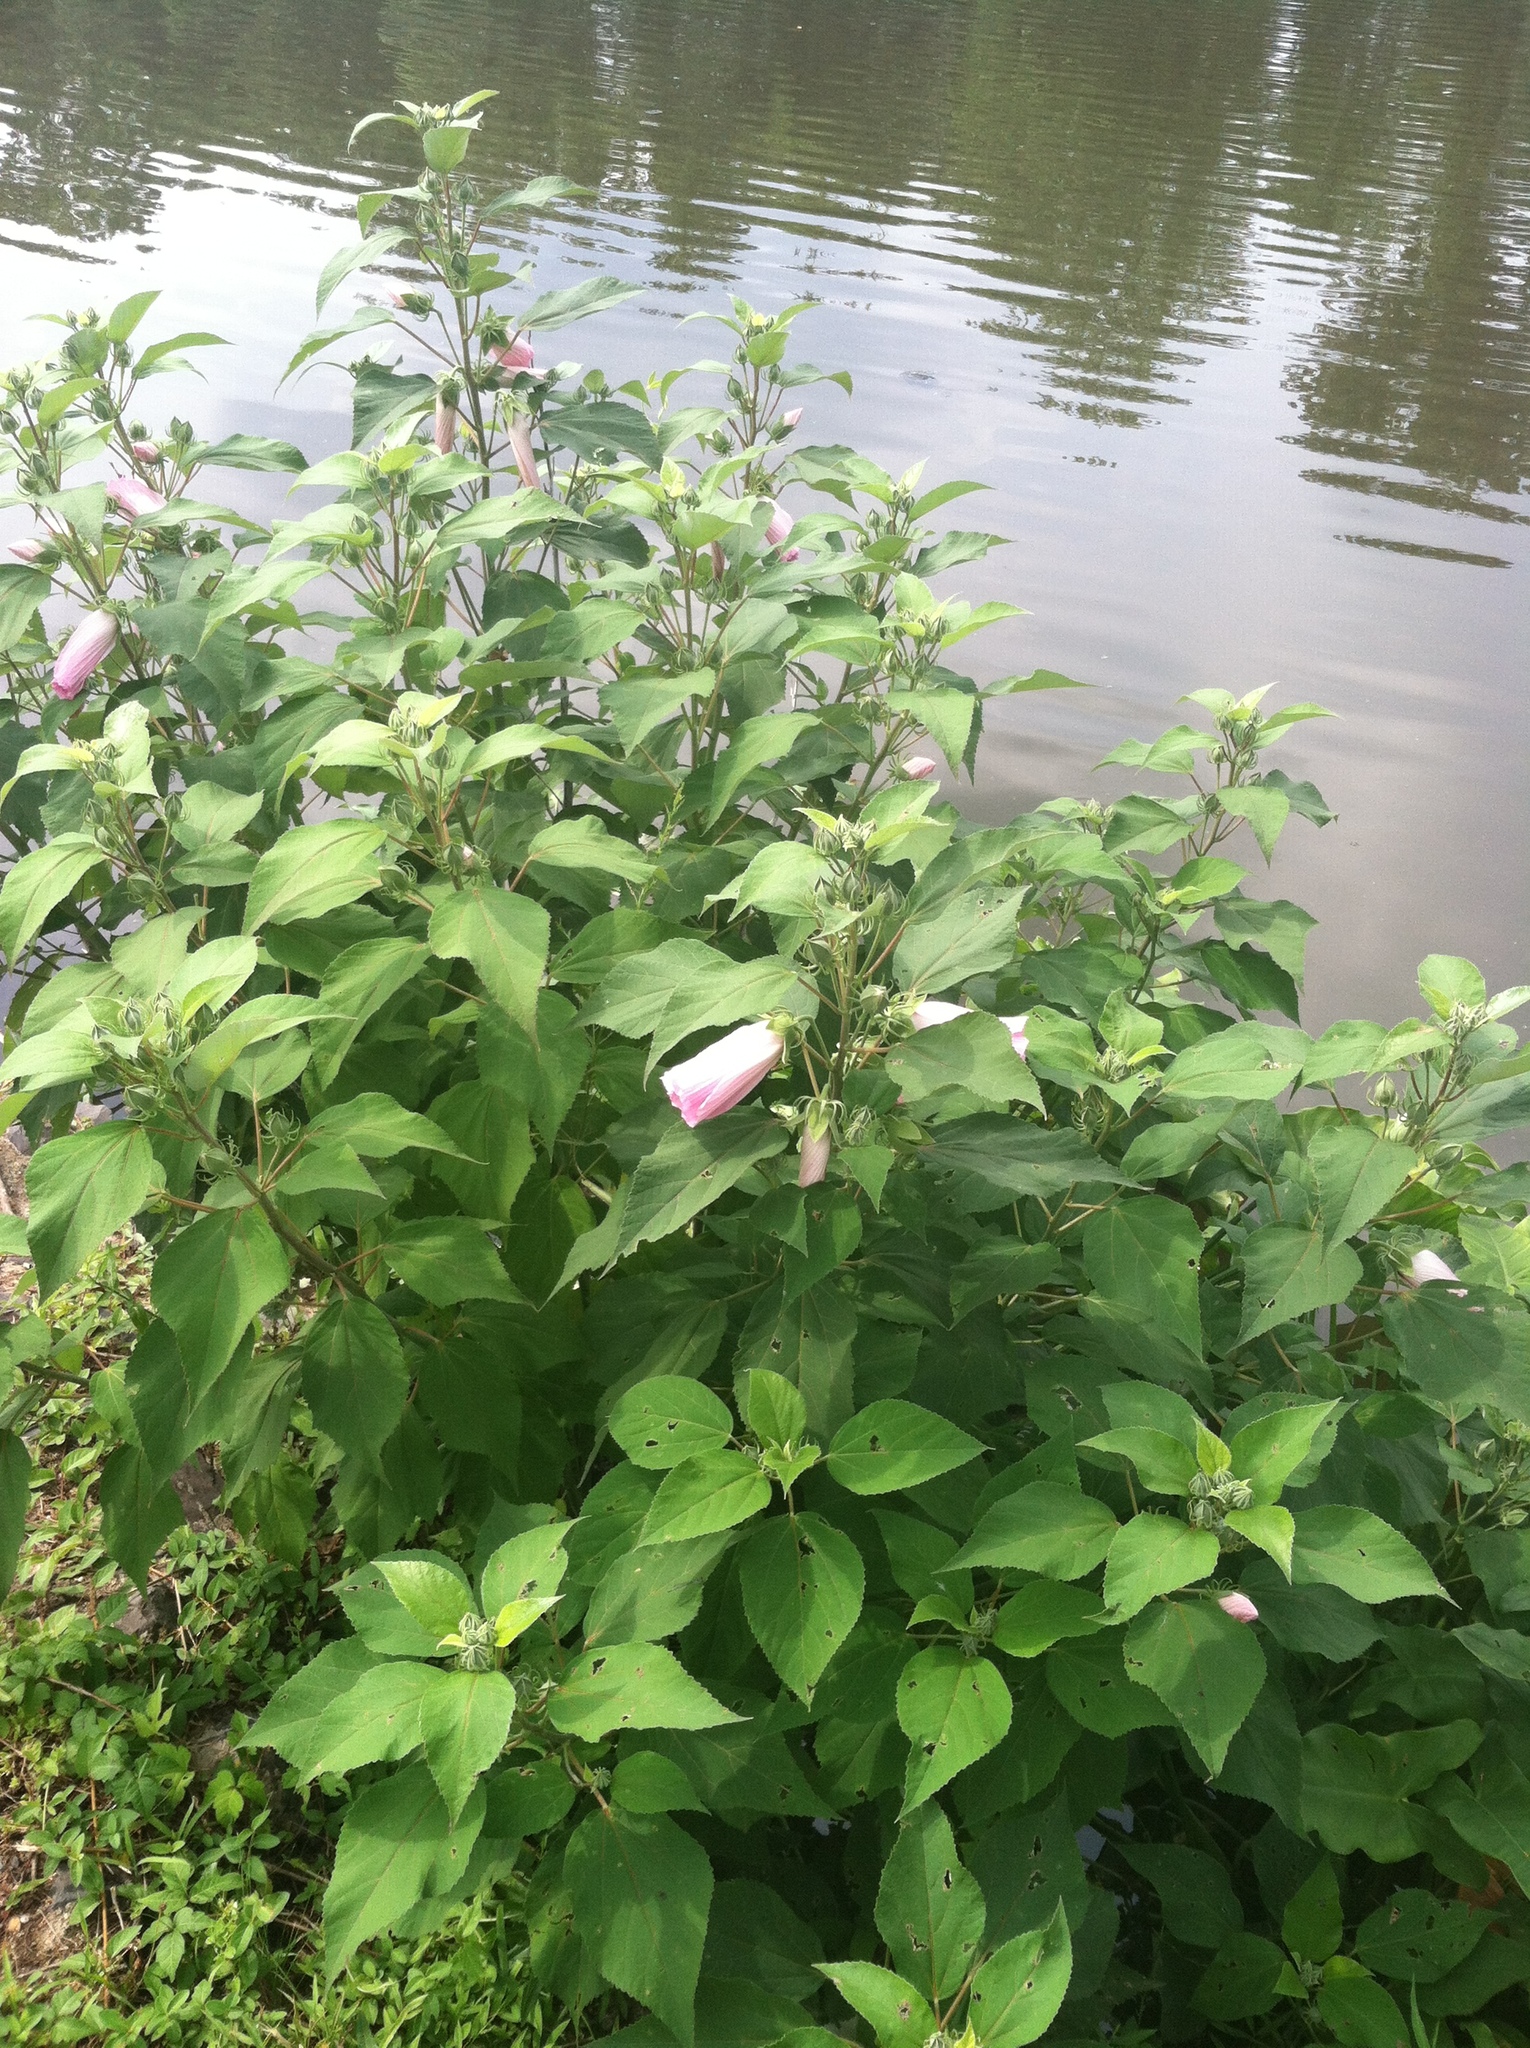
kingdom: Plantae
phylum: Tracheophyta
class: Magnoliopsida
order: Malvales
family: Malvaceae
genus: Hibiscus
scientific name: Hibiscus moscheutos
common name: Common rose-mallow
